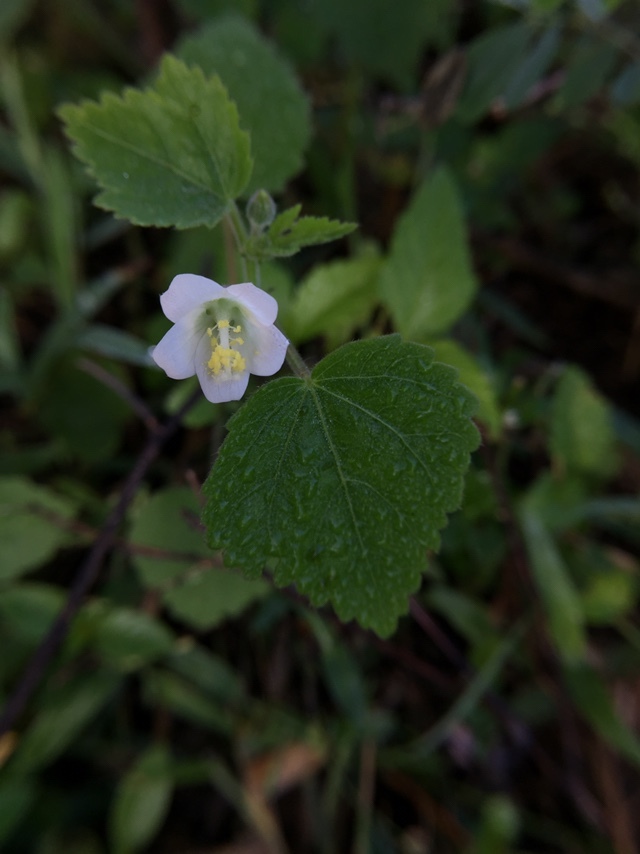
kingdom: Plantae
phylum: Tracheophyta
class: Magnoliopsida
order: Malvales
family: Malvaceae
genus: Hibiscus
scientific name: Hibiscus lobatus
